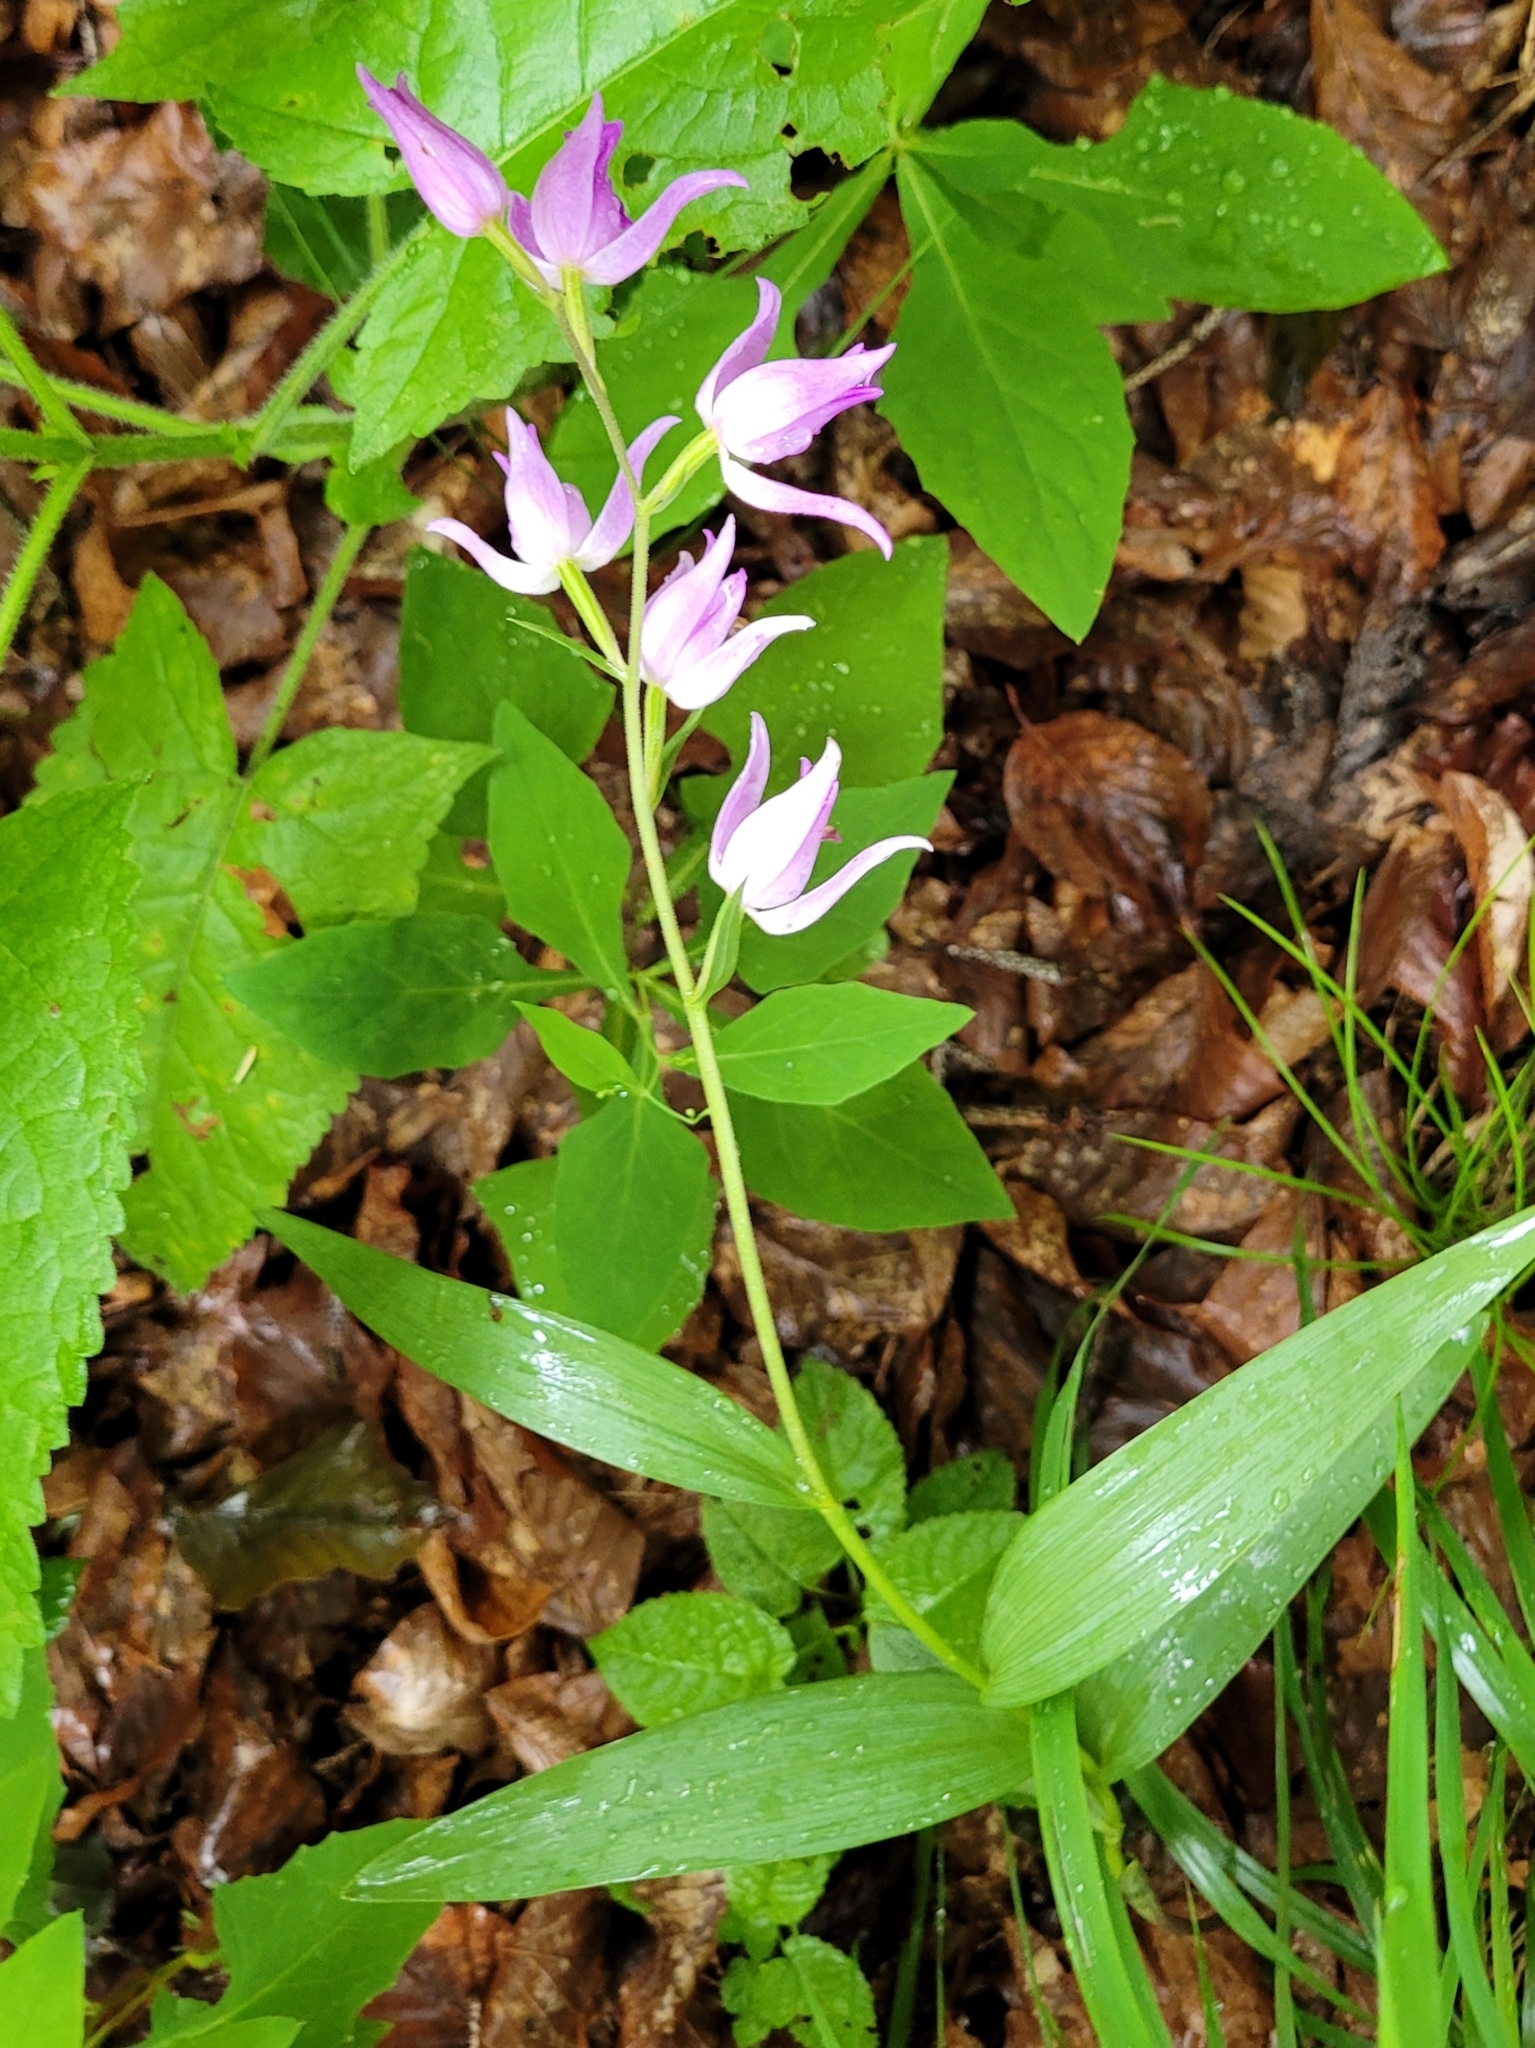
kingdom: Plantae
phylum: Tracheophyta
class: Liliopsida
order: Asparagales
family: Orchidaceae
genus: Cephalanthera
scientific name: Cephalanthera rubra
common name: Red helleborine
